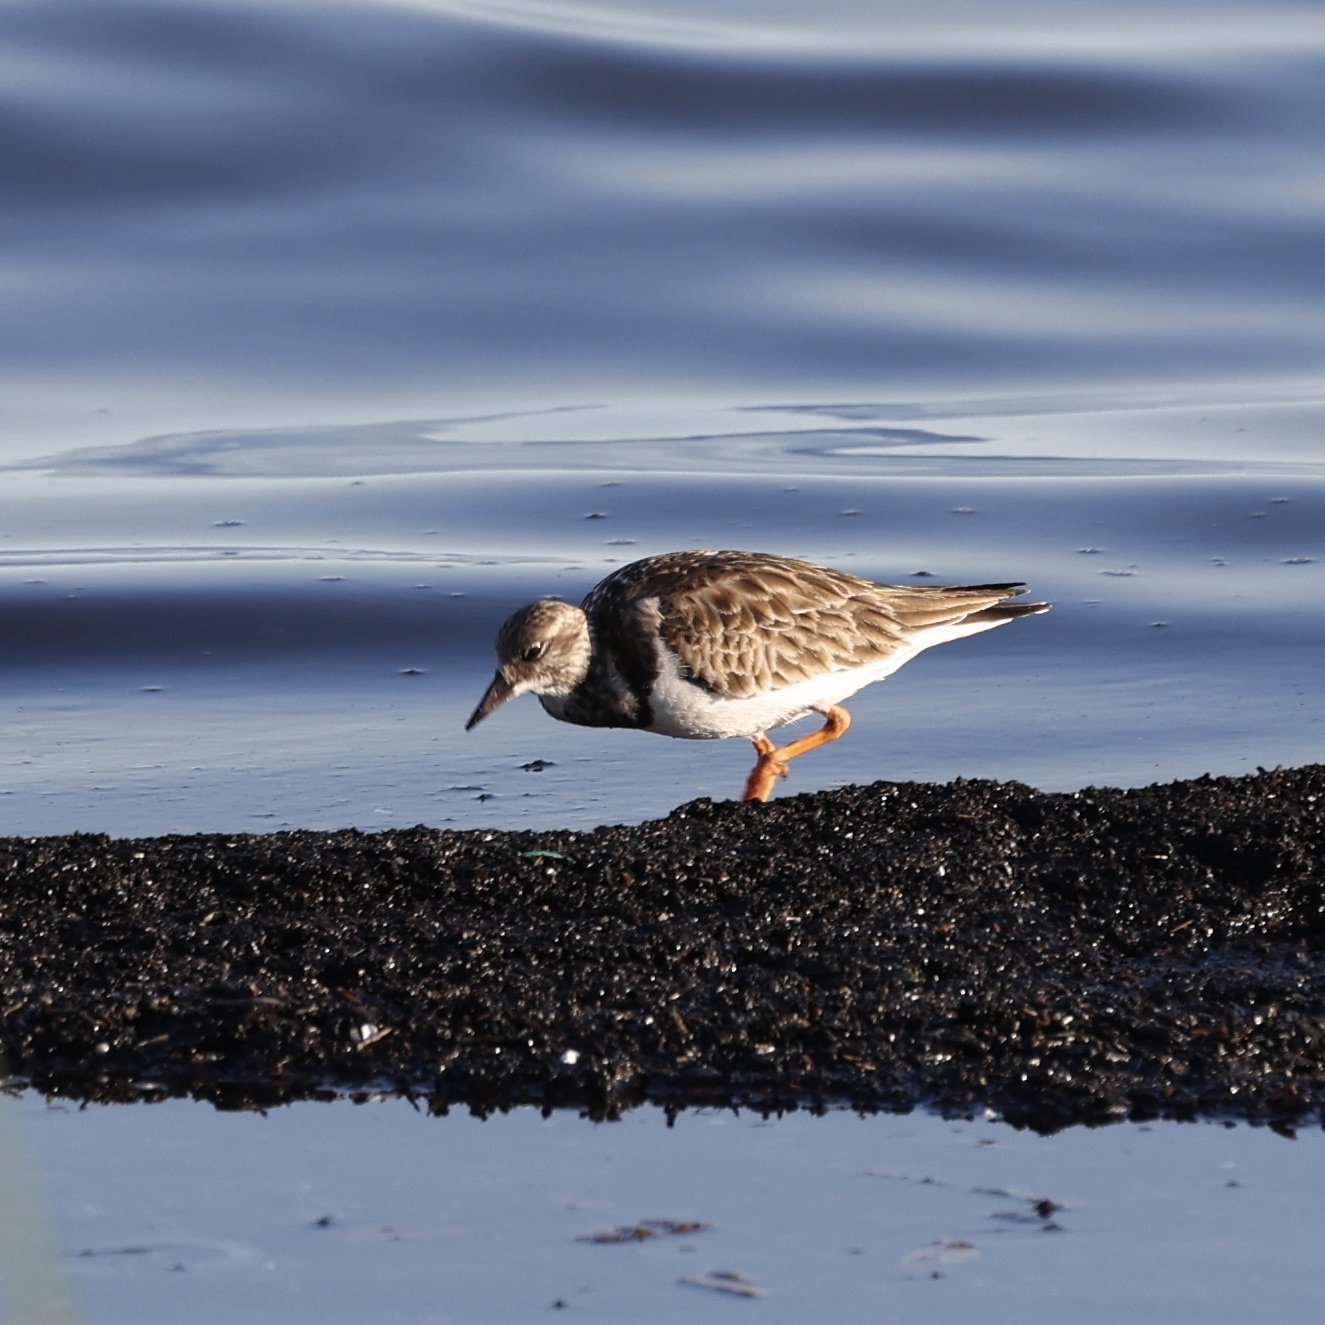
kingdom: Animalia
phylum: Chordata
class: Aves
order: Charadriiformes
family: Scolopacidae
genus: Arenaria
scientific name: Arenaria interpres
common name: Ruddy turnstone
